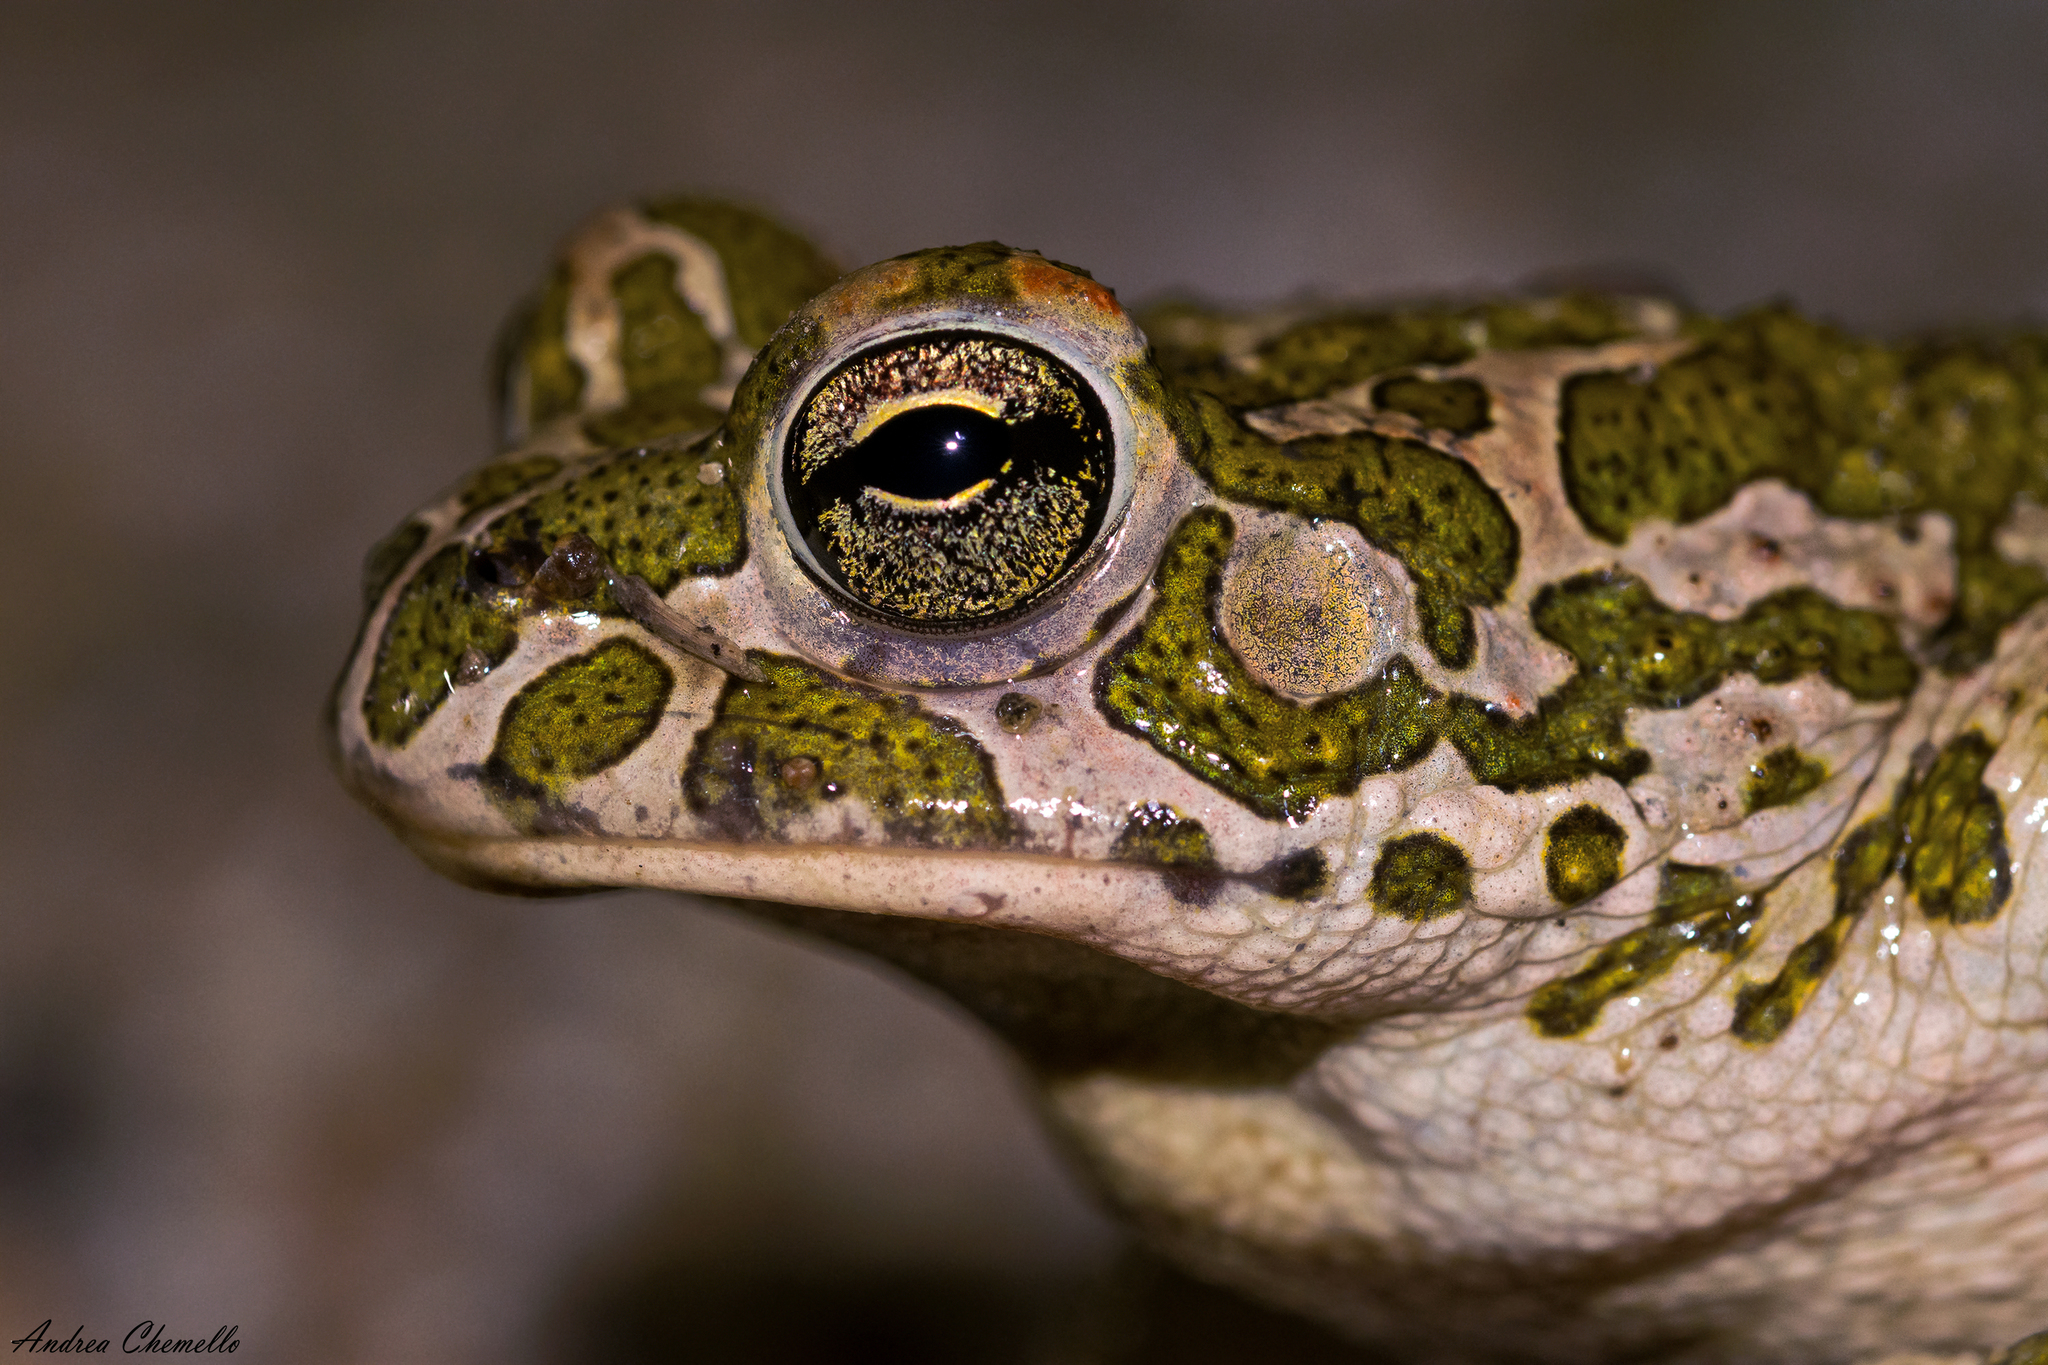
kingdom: Animalia
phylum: Chordata
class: Amphibia
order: Anura
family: Bufonidae
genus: Bufotes
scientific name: Bufotes viridis
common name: European green toad
